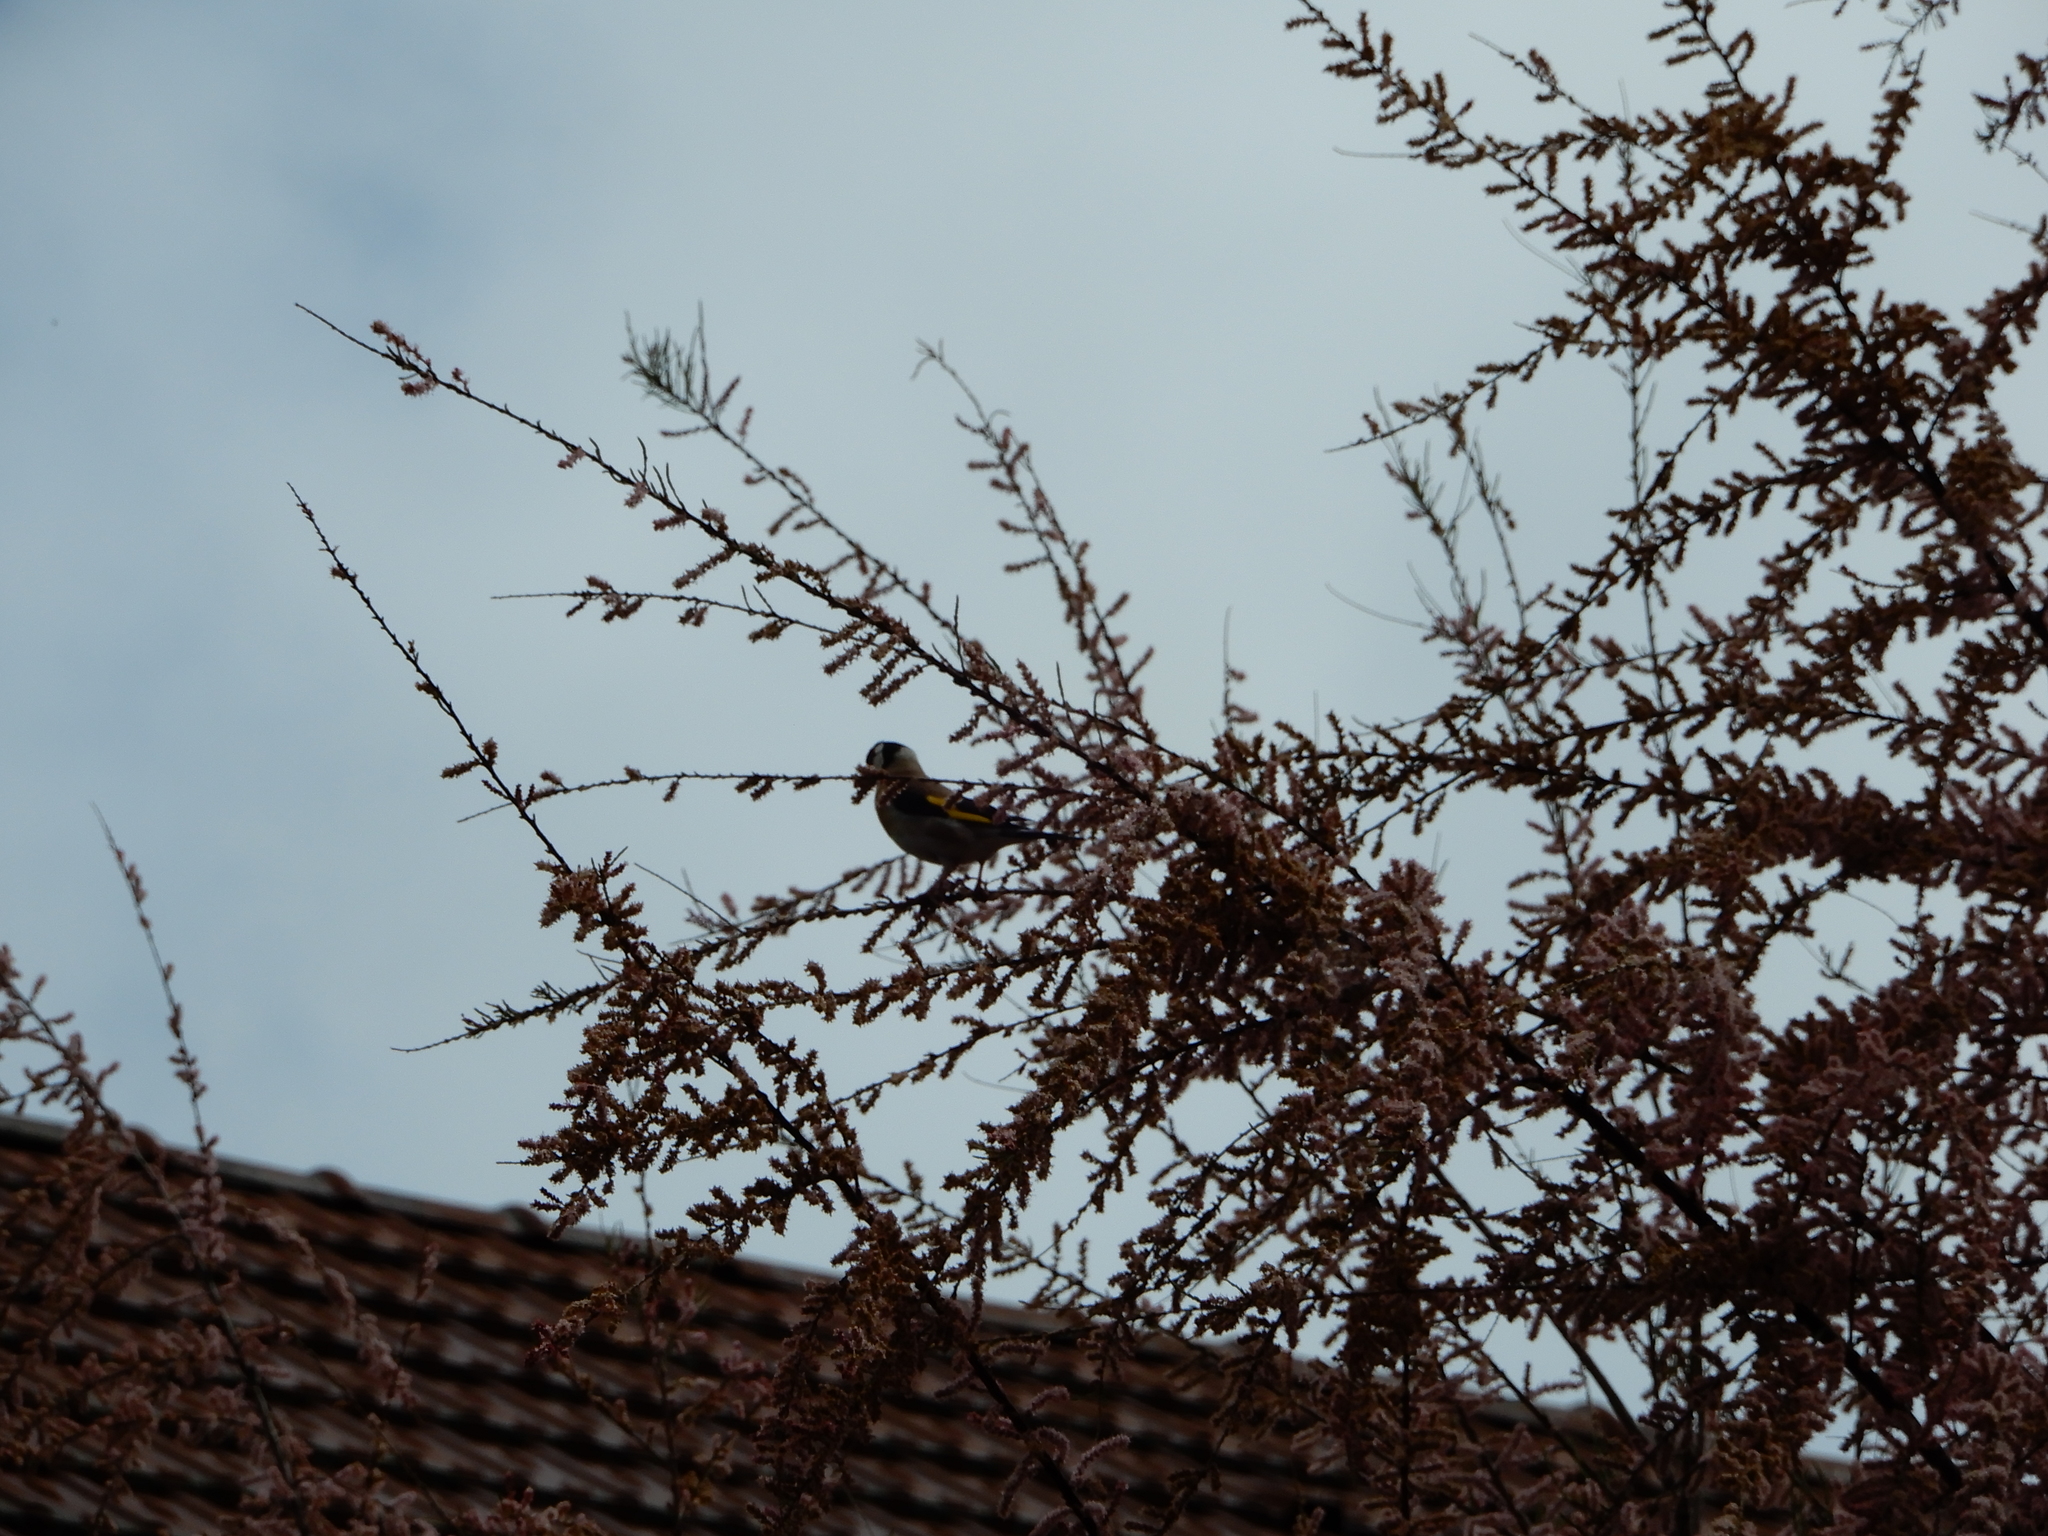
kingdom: Animalia
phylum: Chordata
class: Aves
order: Passeriformes
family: Fringillidae
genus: Carduelis
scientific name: Carduelis carduelis
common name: European goldfinch
